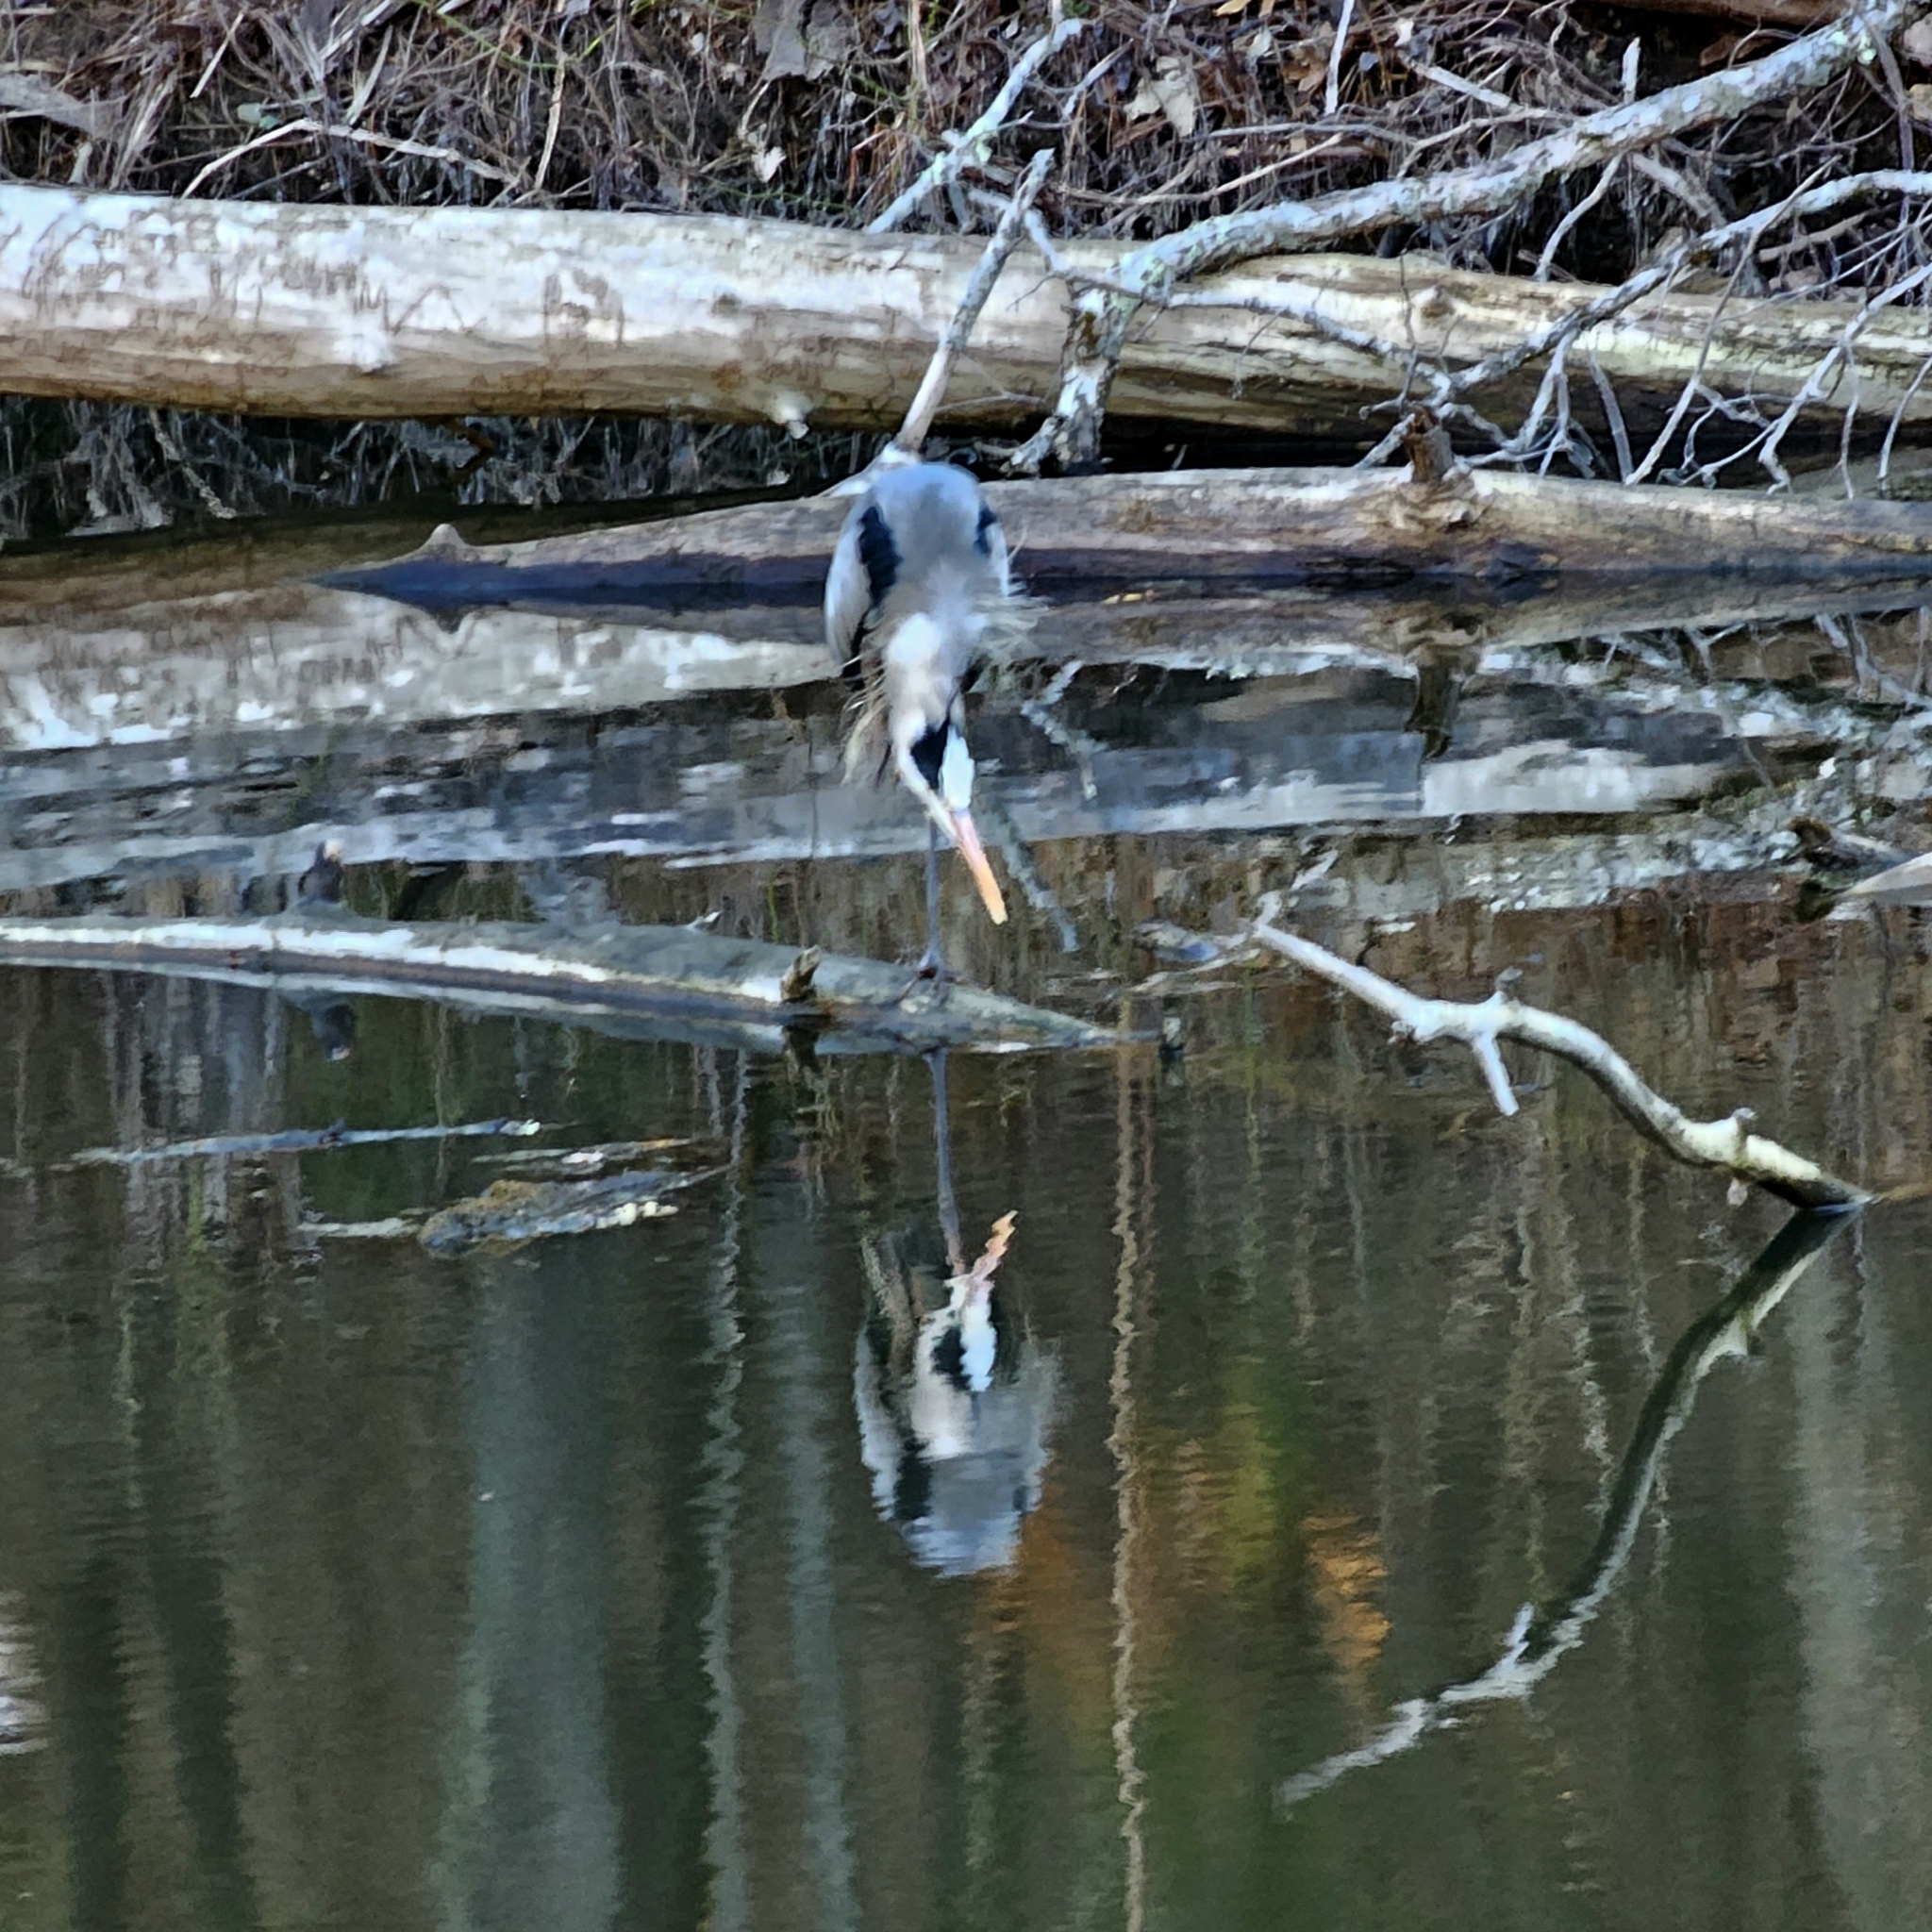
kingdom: Animalia
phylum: Chordata
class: Aves
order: Pelecaniformes
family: Ardeidae
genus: Ardea
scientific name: Ardea herodias
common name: Great blue heron
